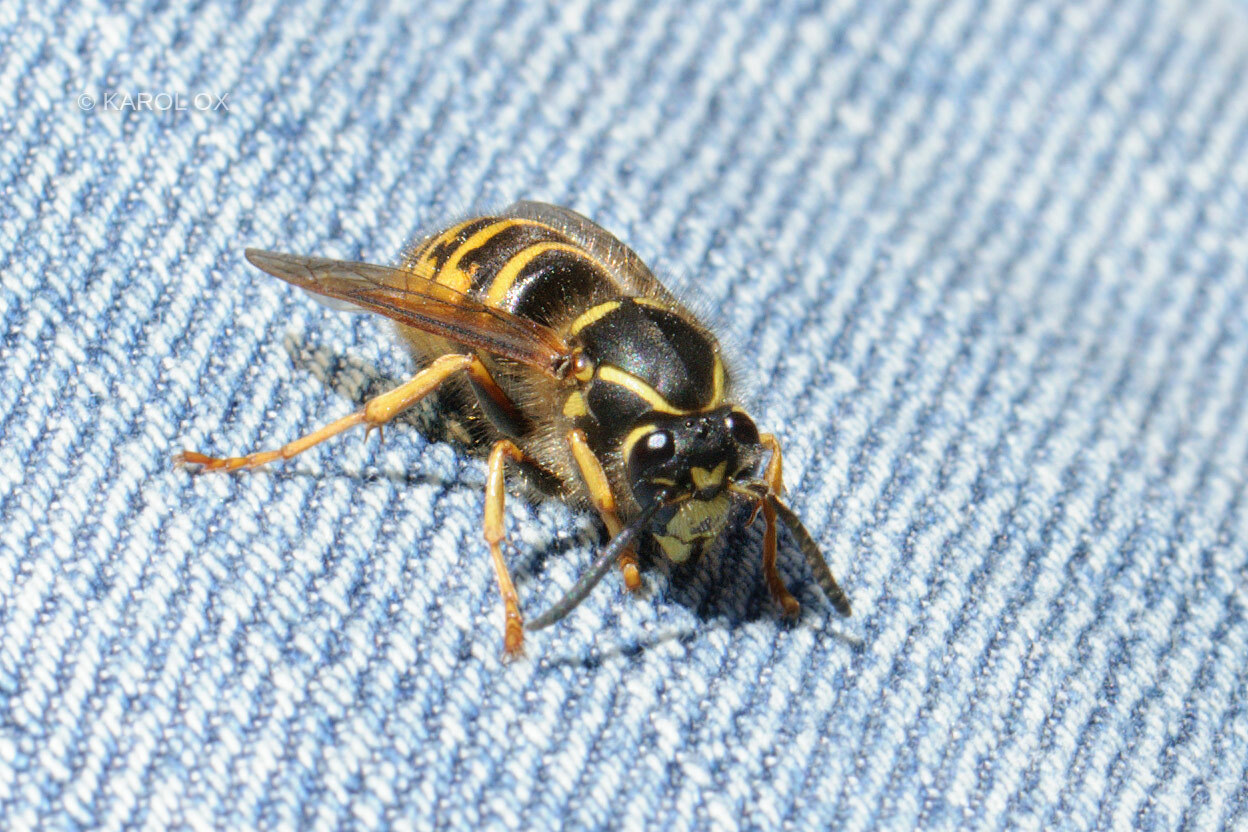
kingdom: Animalia
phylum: Arthropoda
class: Insecta
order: Hymenoptera
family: Vespidae
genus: Dolichovespula
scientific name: Dolichovespula saxonica
